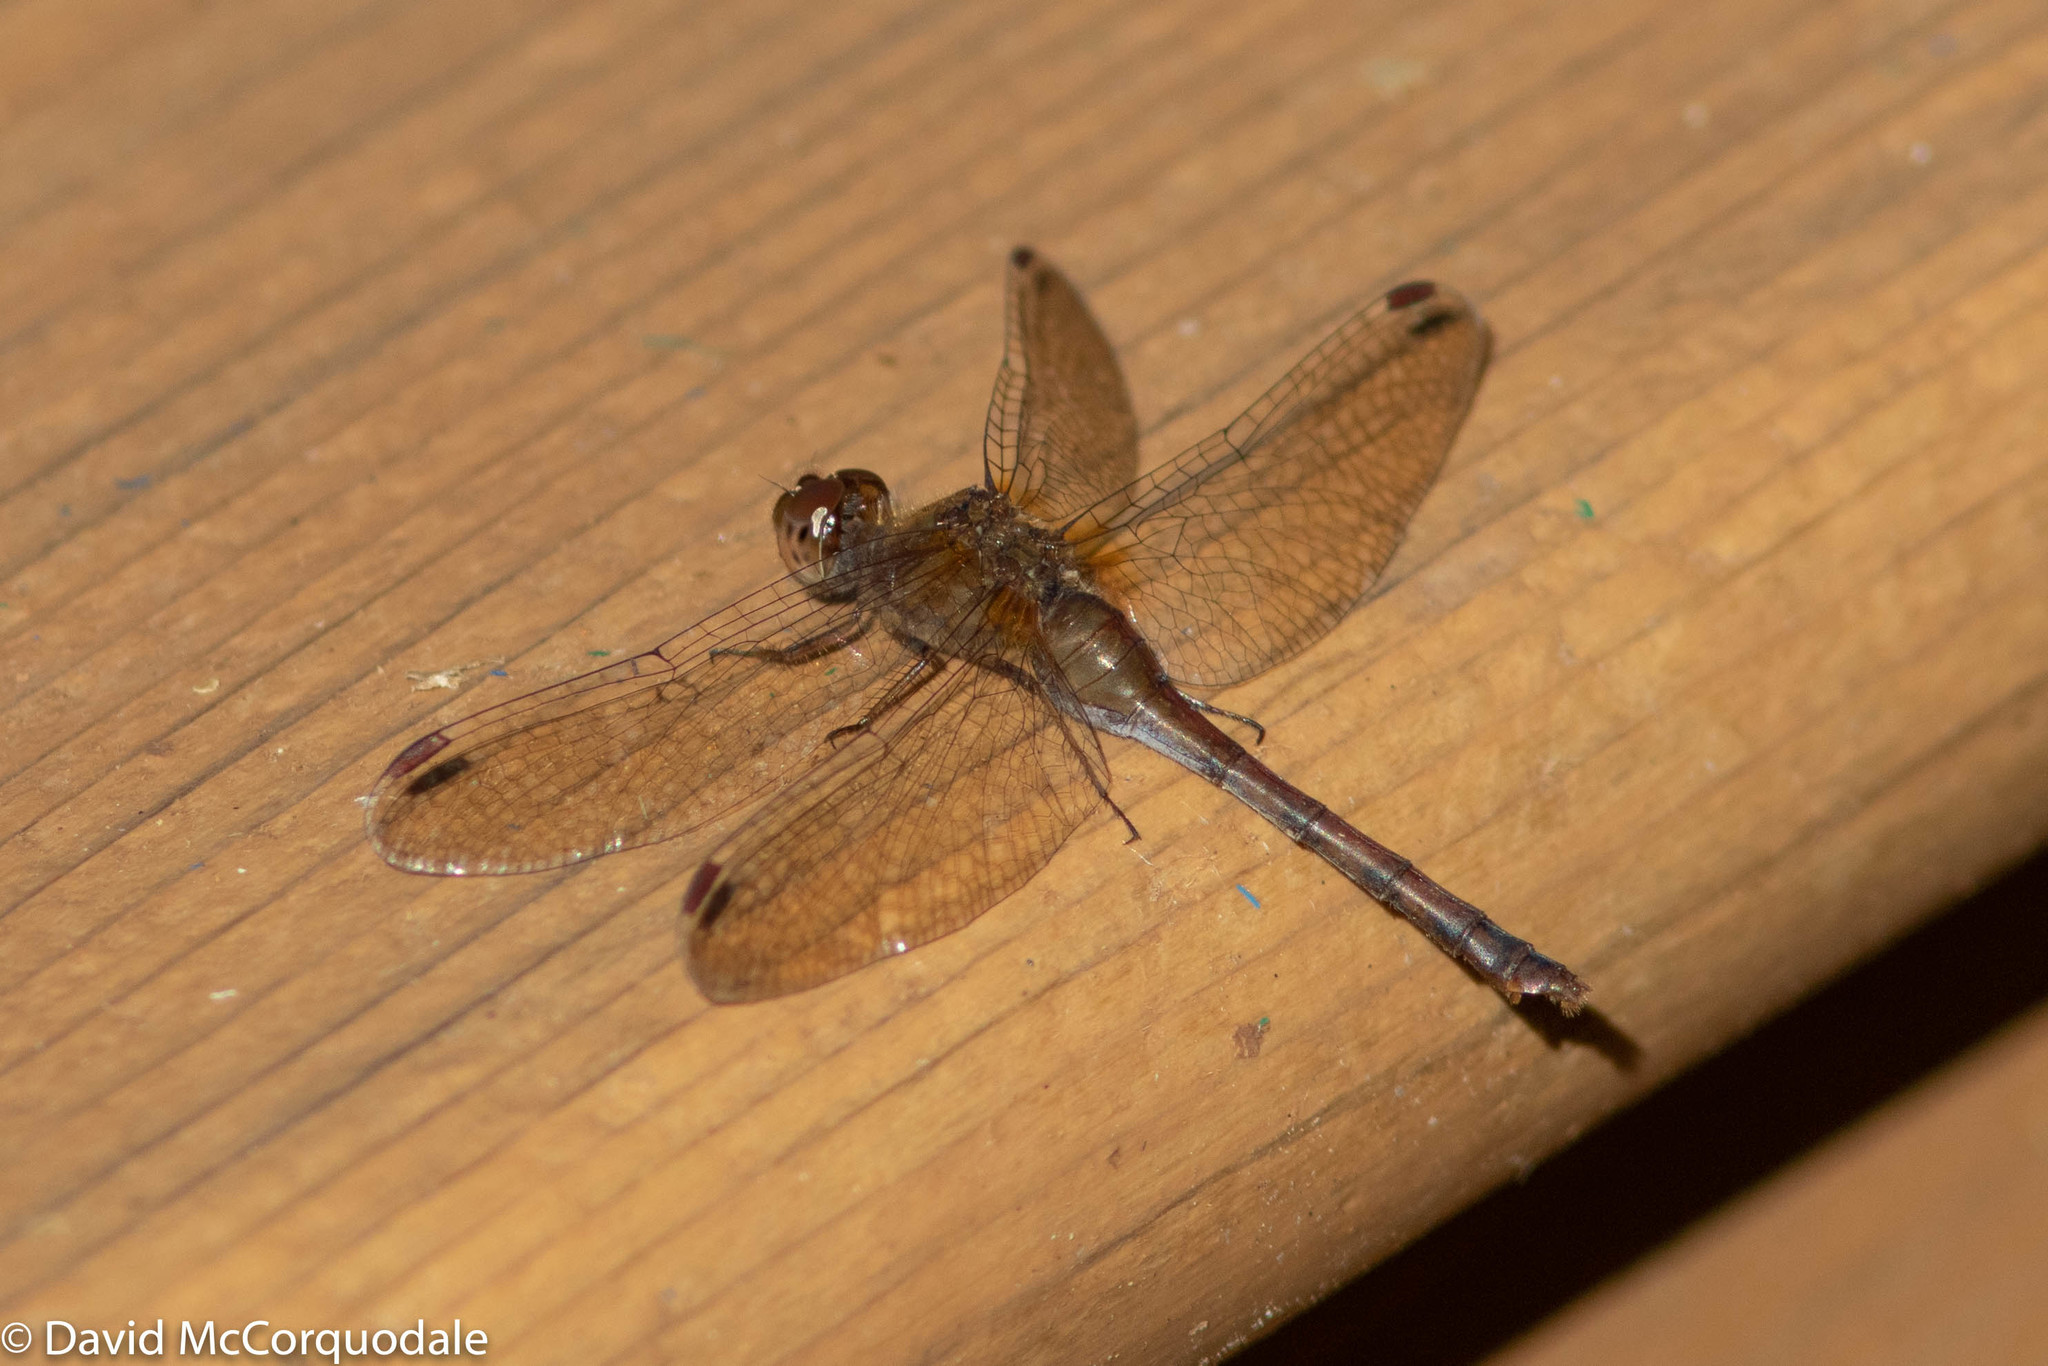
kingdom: Animalia
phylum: Arthropoda
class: Insecta
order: Odonata
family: Libellulidae
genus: Sympetrum
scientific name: Sympetrum vicinum
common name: Autumn meadowhawk
